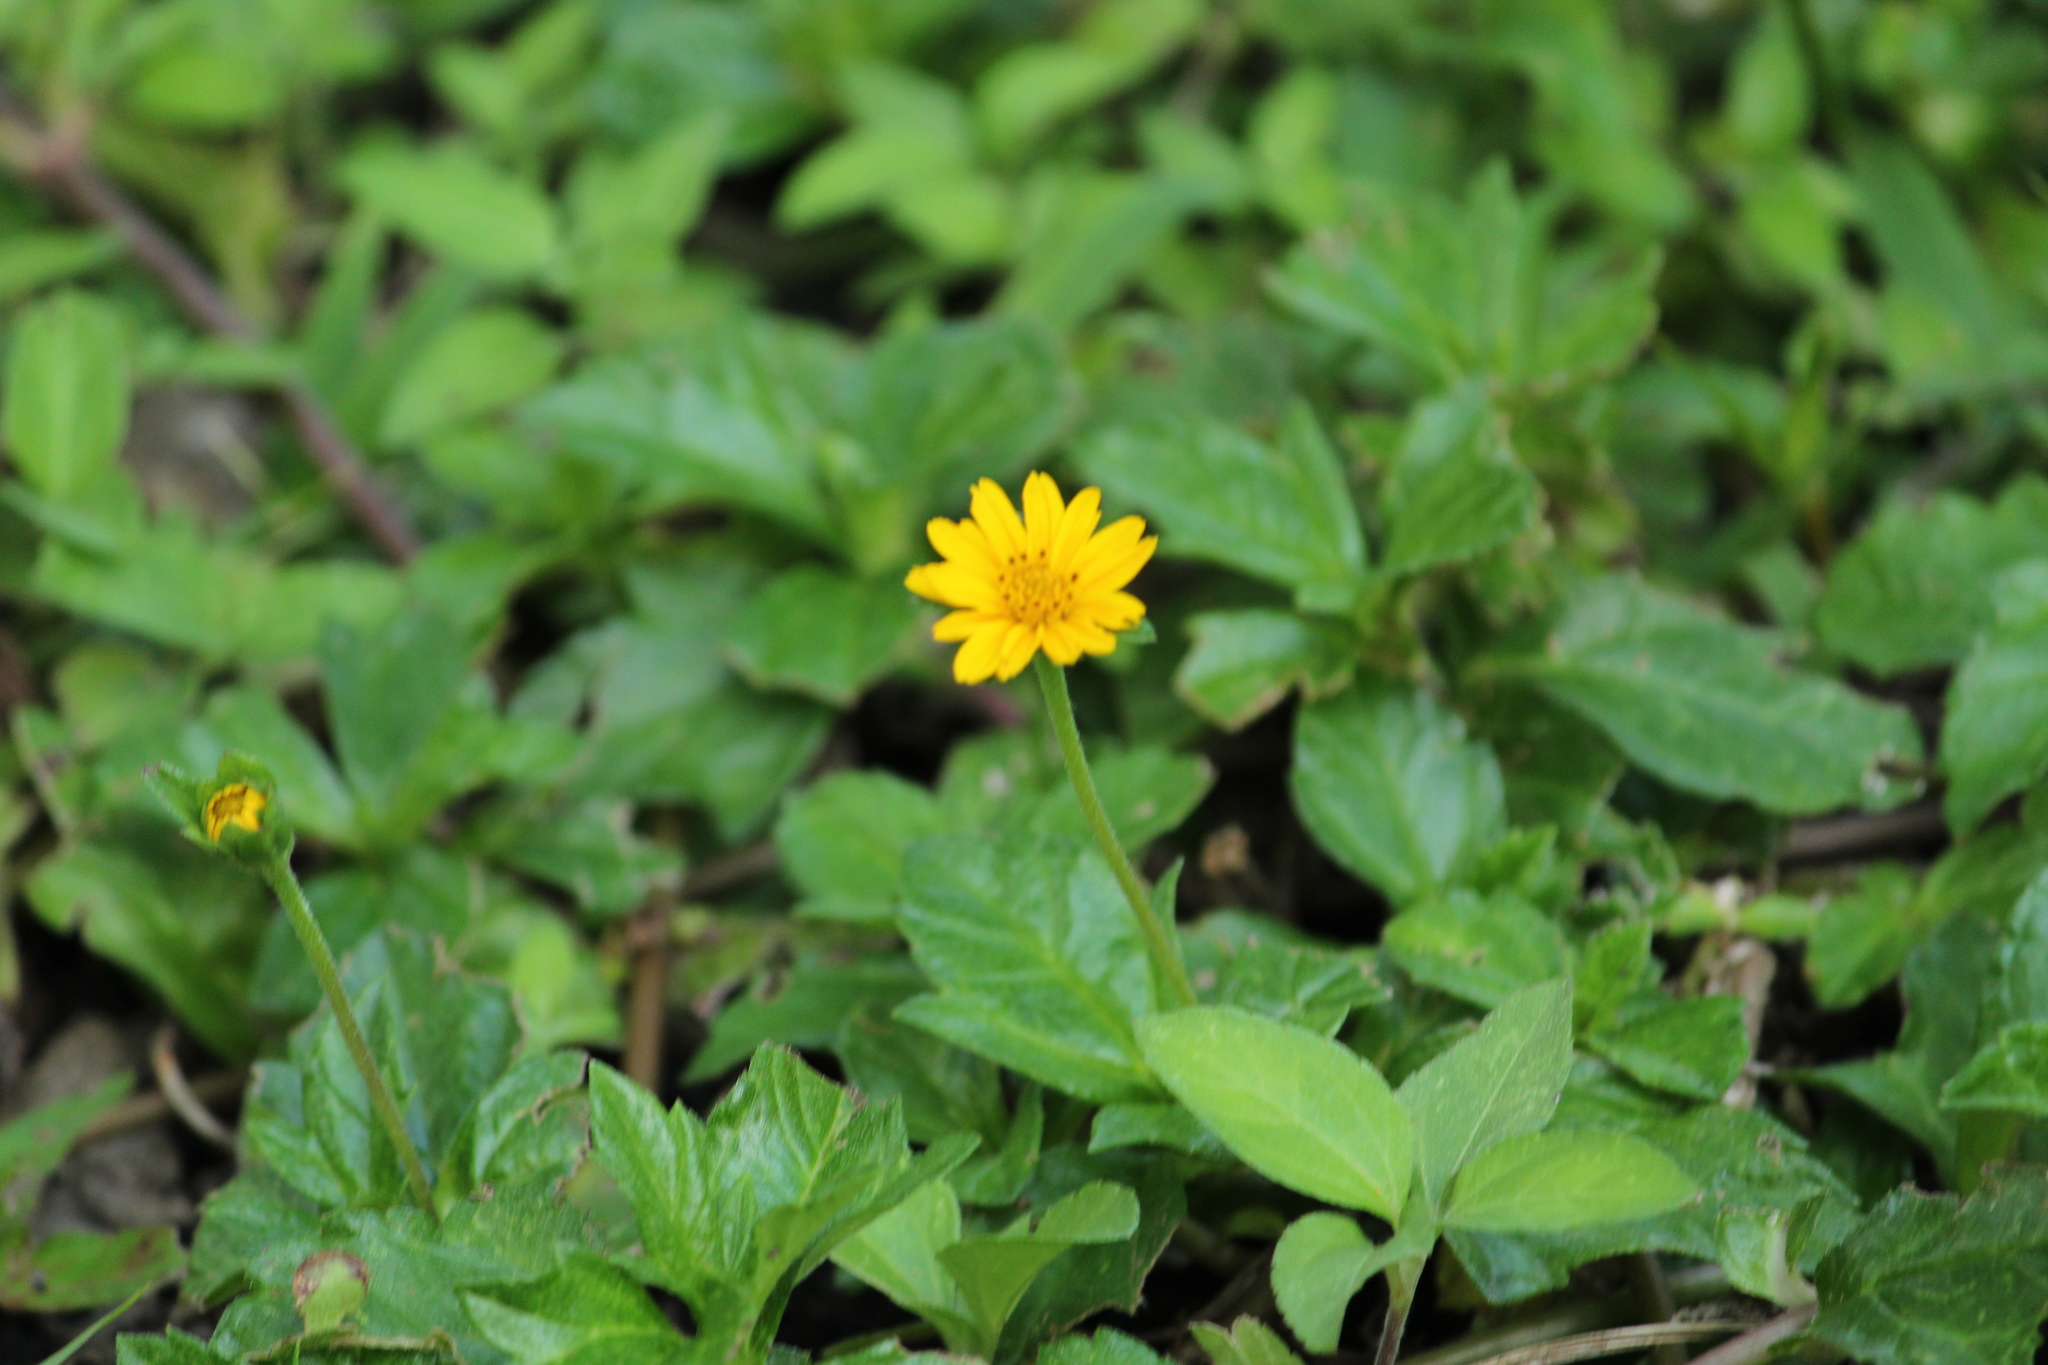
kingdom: Plantae
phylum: Tracheophyta
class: Magnoliopsida
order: Asterales
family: Asteraceae
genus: Sphagneticola
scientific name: Sphagneticola trilobata
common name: Bay biscayne creeping-oxeye
